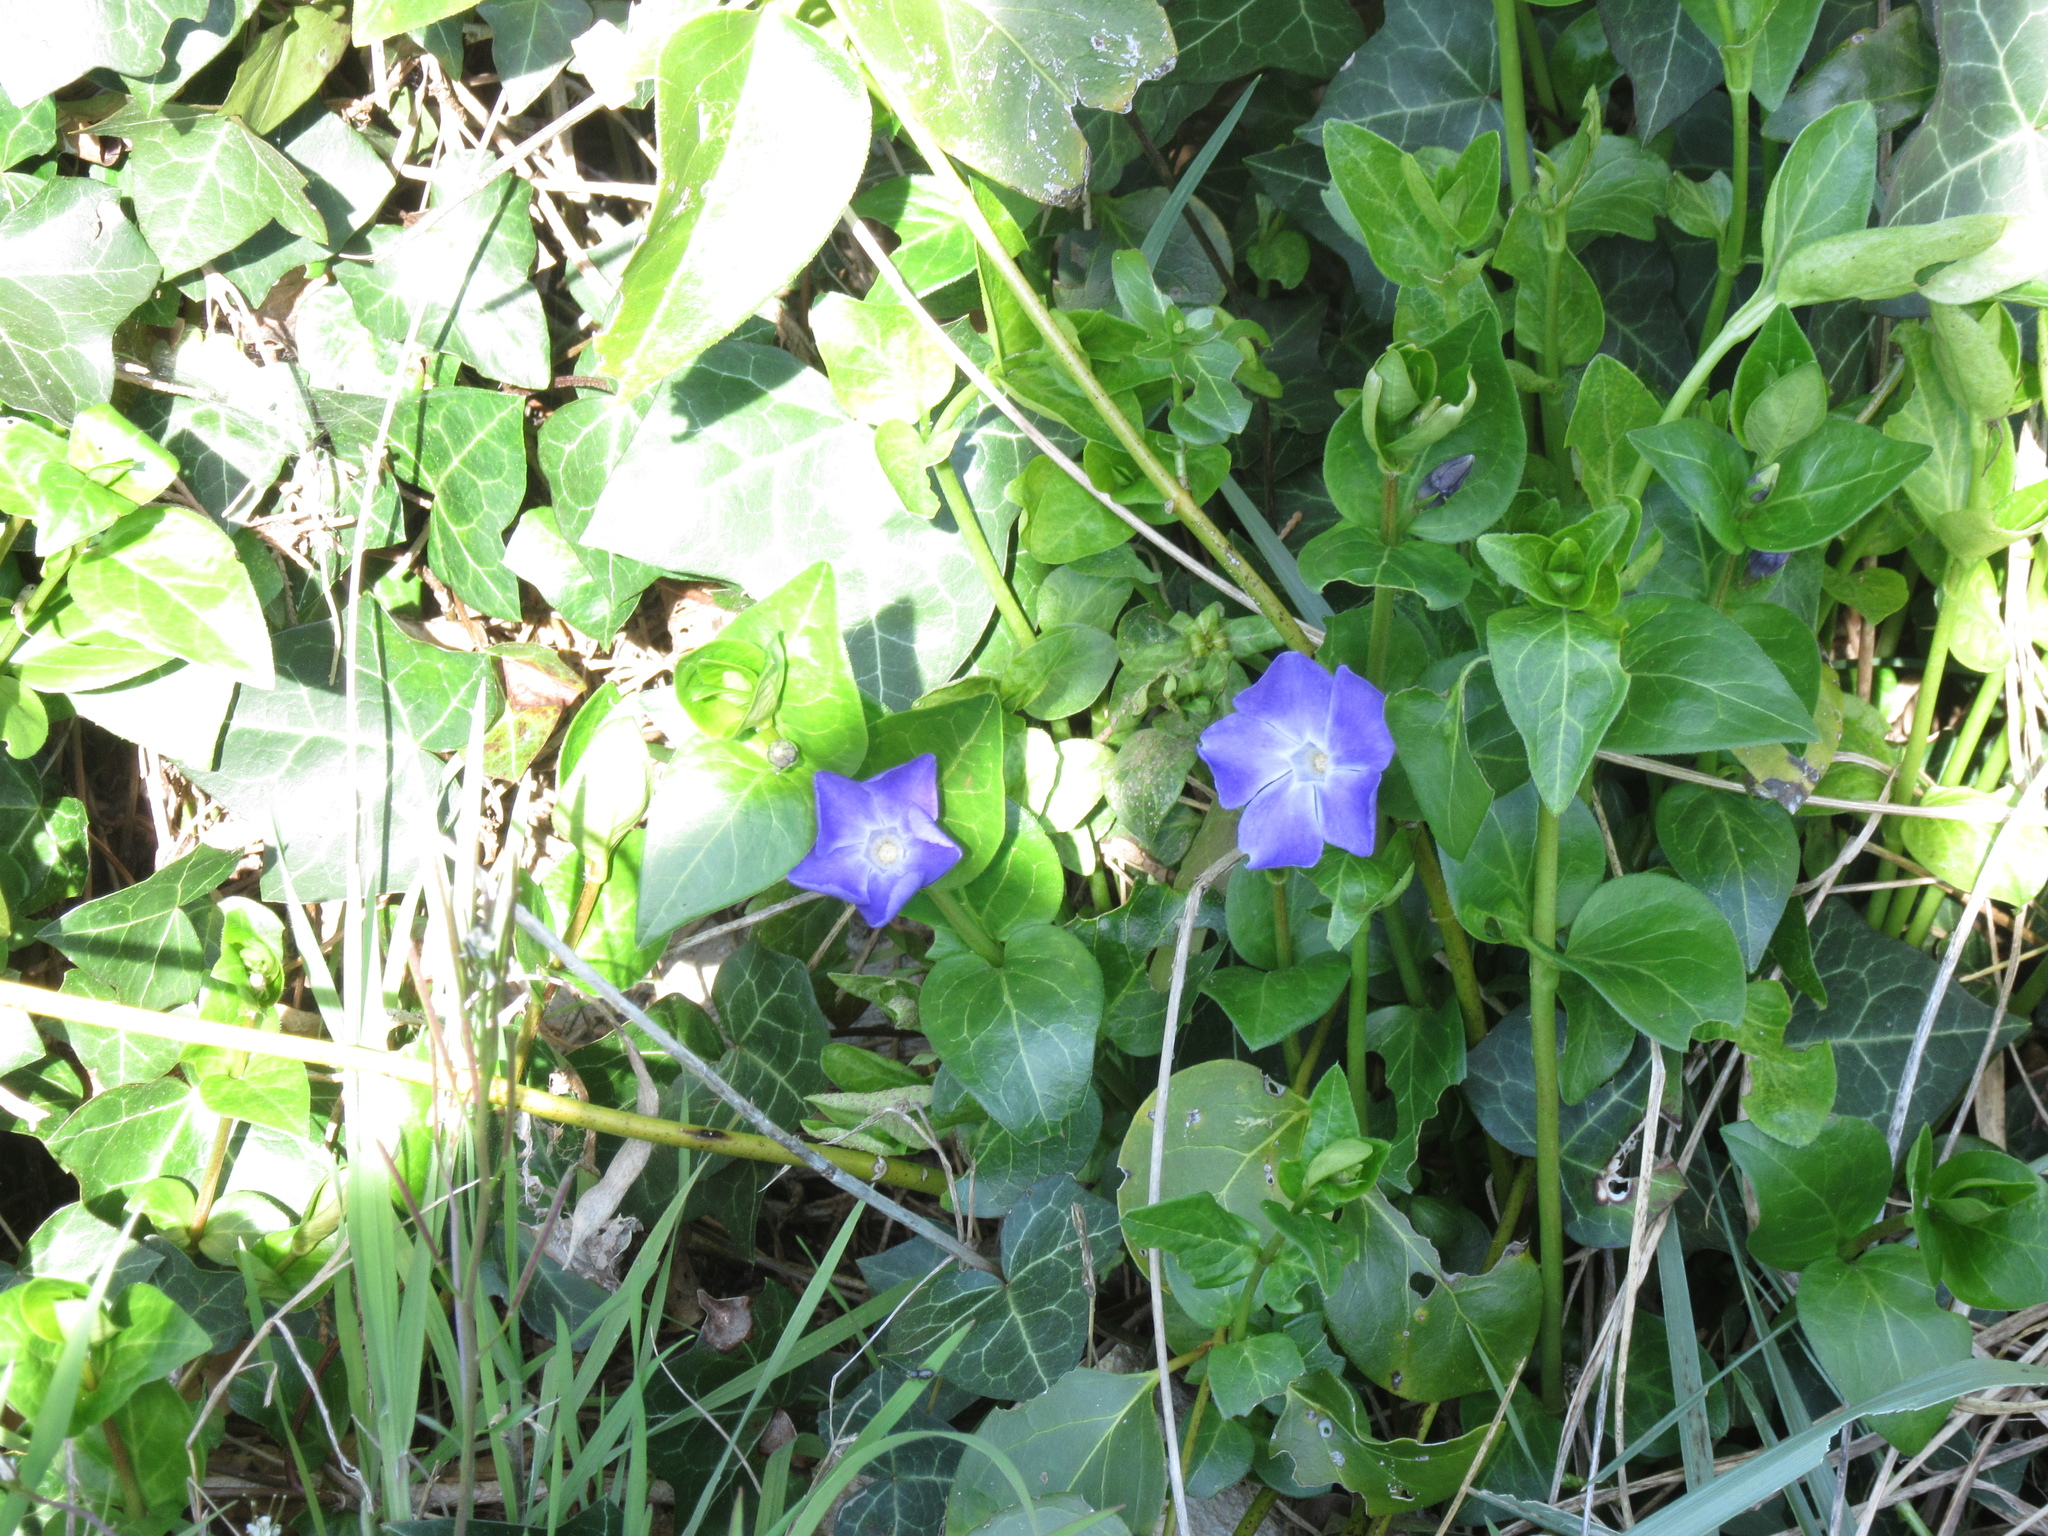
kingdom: Plantae
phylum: Tracheophyta
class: Magnoliopsida
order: Gentianales
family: Apocynaceae
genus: Vinca
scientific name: Vinca major
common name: Greater periwinkle
